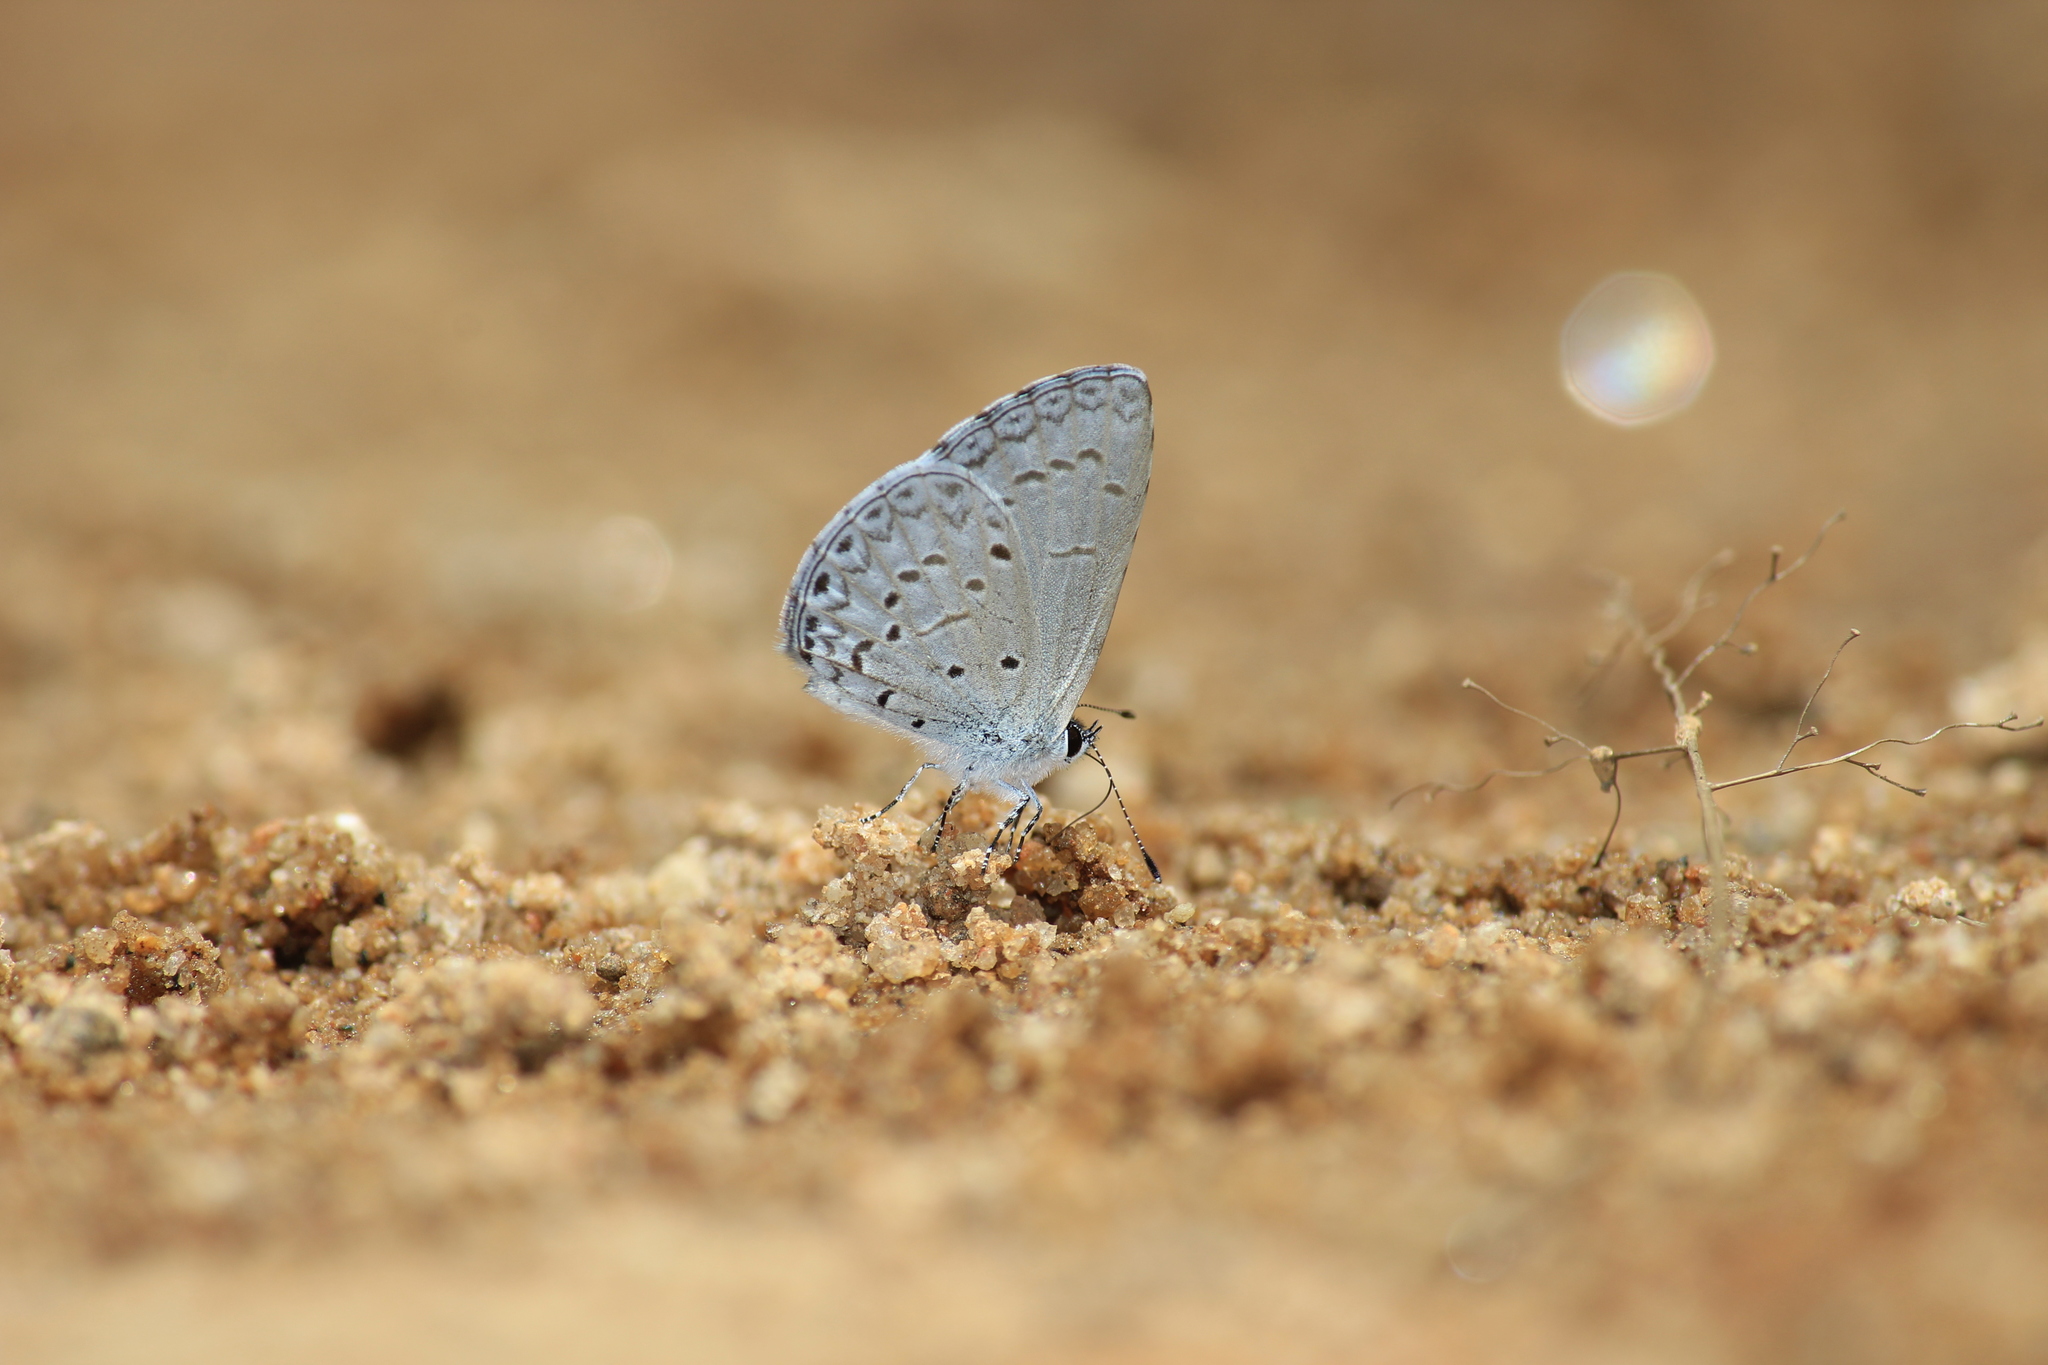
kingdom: Animalia
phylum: Arthropoda
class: Insecta
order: Lepidoptera
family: Lycaenidae
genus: Acytolepis
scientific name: Acytolepis puspa
